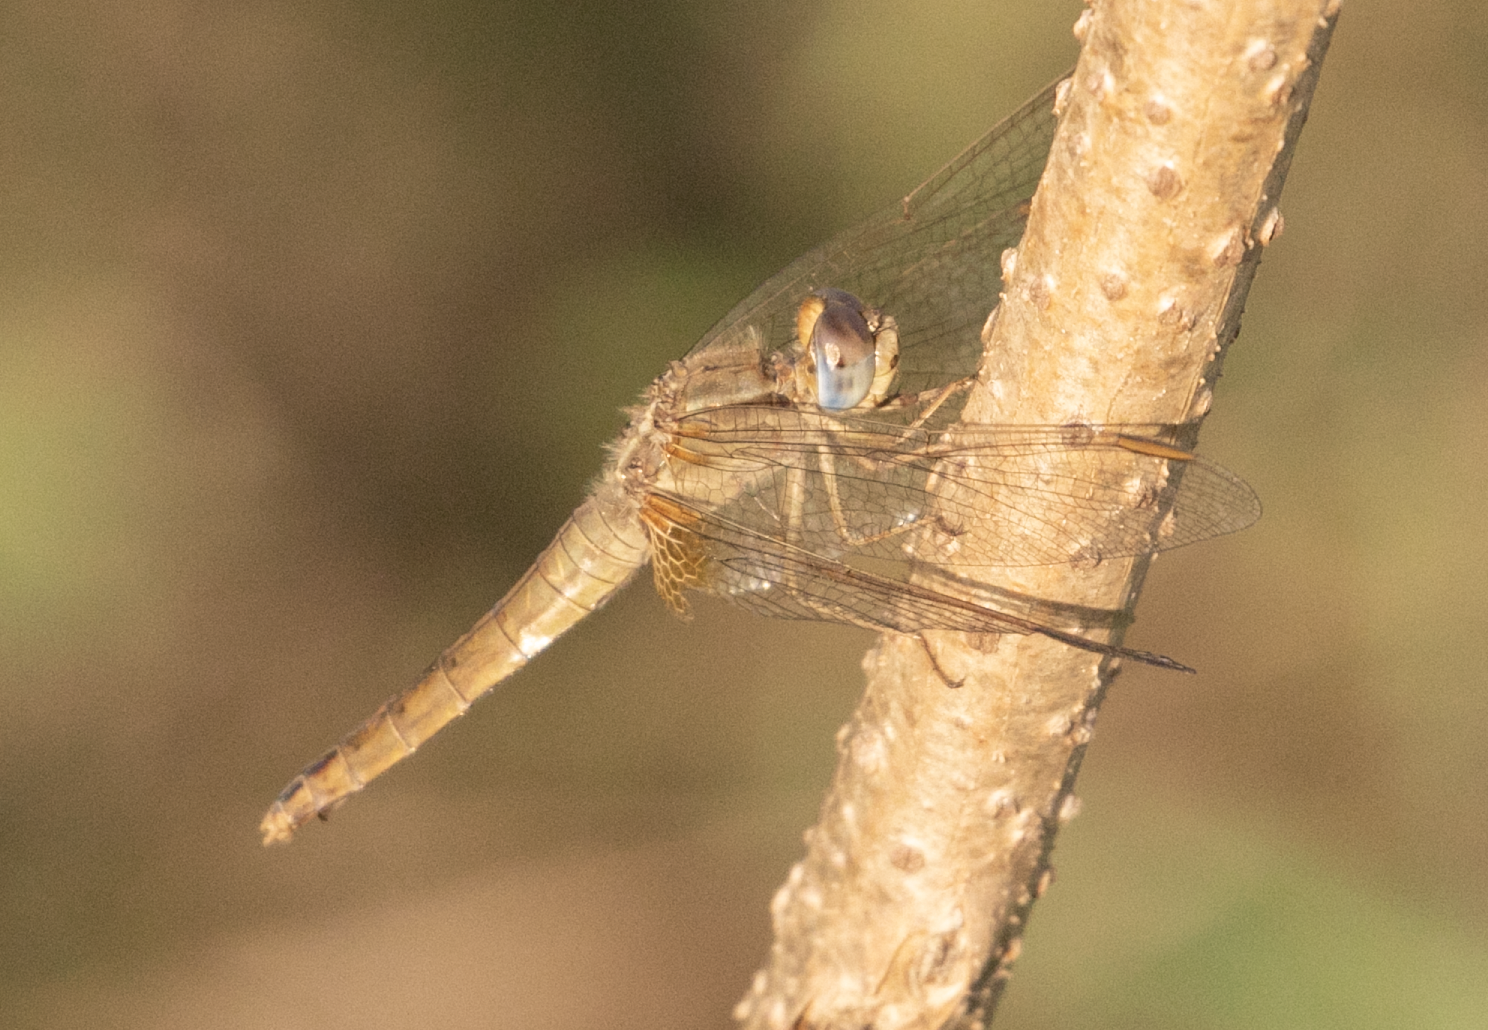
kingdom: Animalia
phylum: Arthropoda
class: Insecta
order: Odonata
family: Libellulidae
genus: Crocothemis
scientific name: Crocothemis erythraea
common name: Scarlet dragonfly
